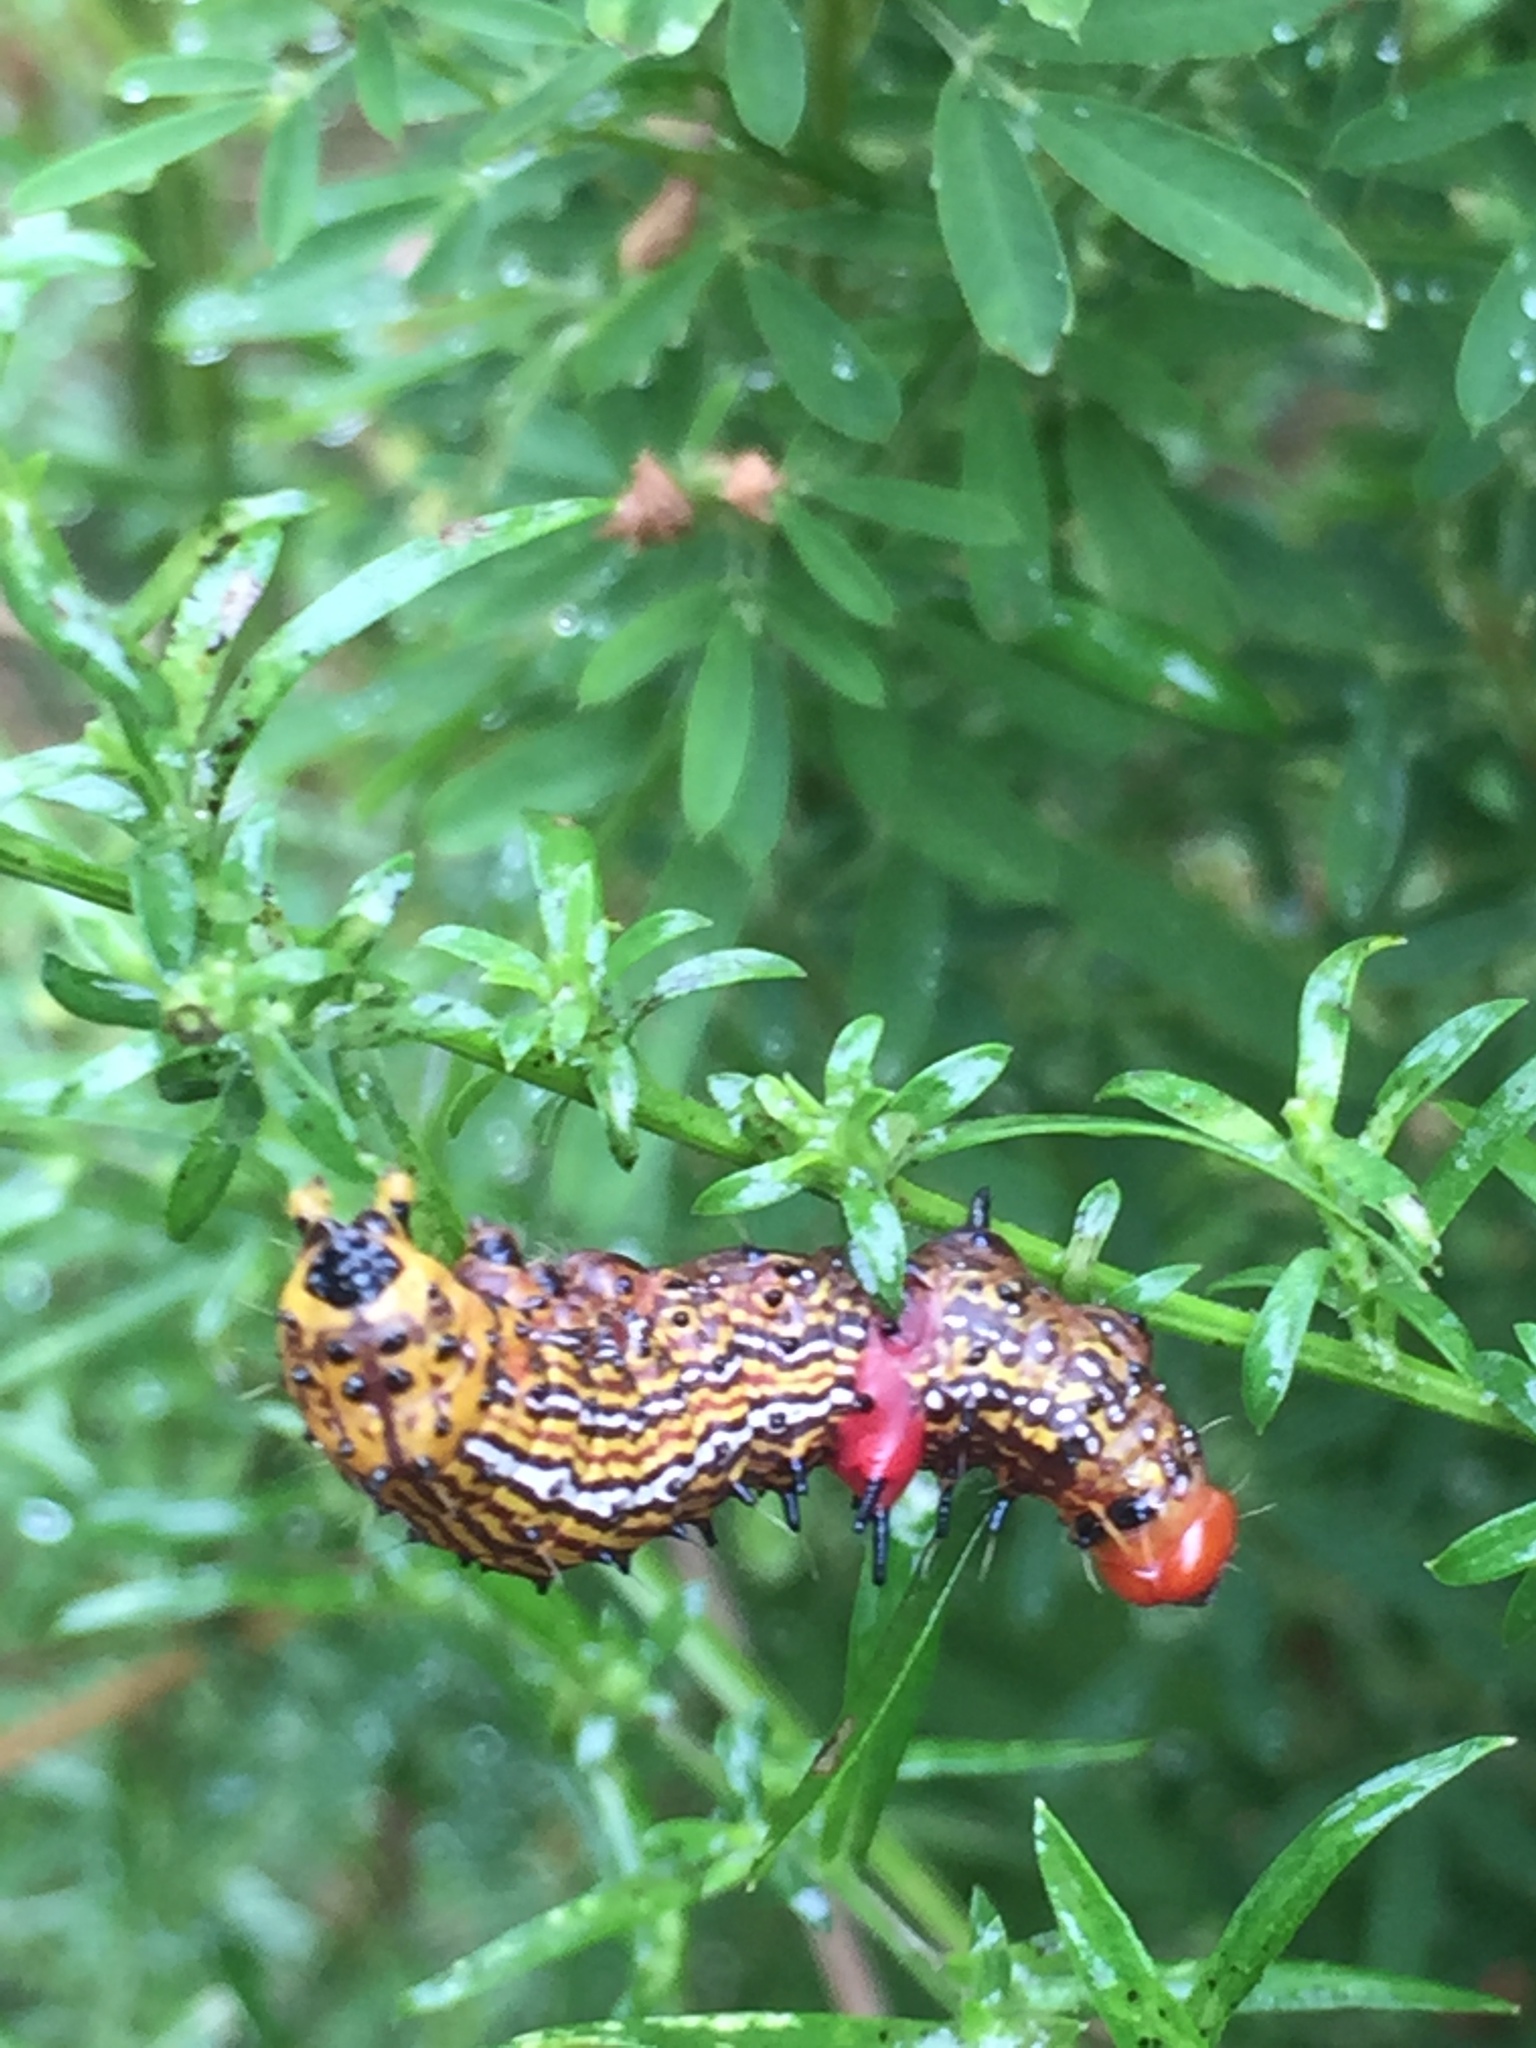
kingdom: Animalia
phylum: Arthropoda
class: Insecta
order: Lepidoptera
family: Notodontidae
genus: Schizura
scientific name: Schizura
